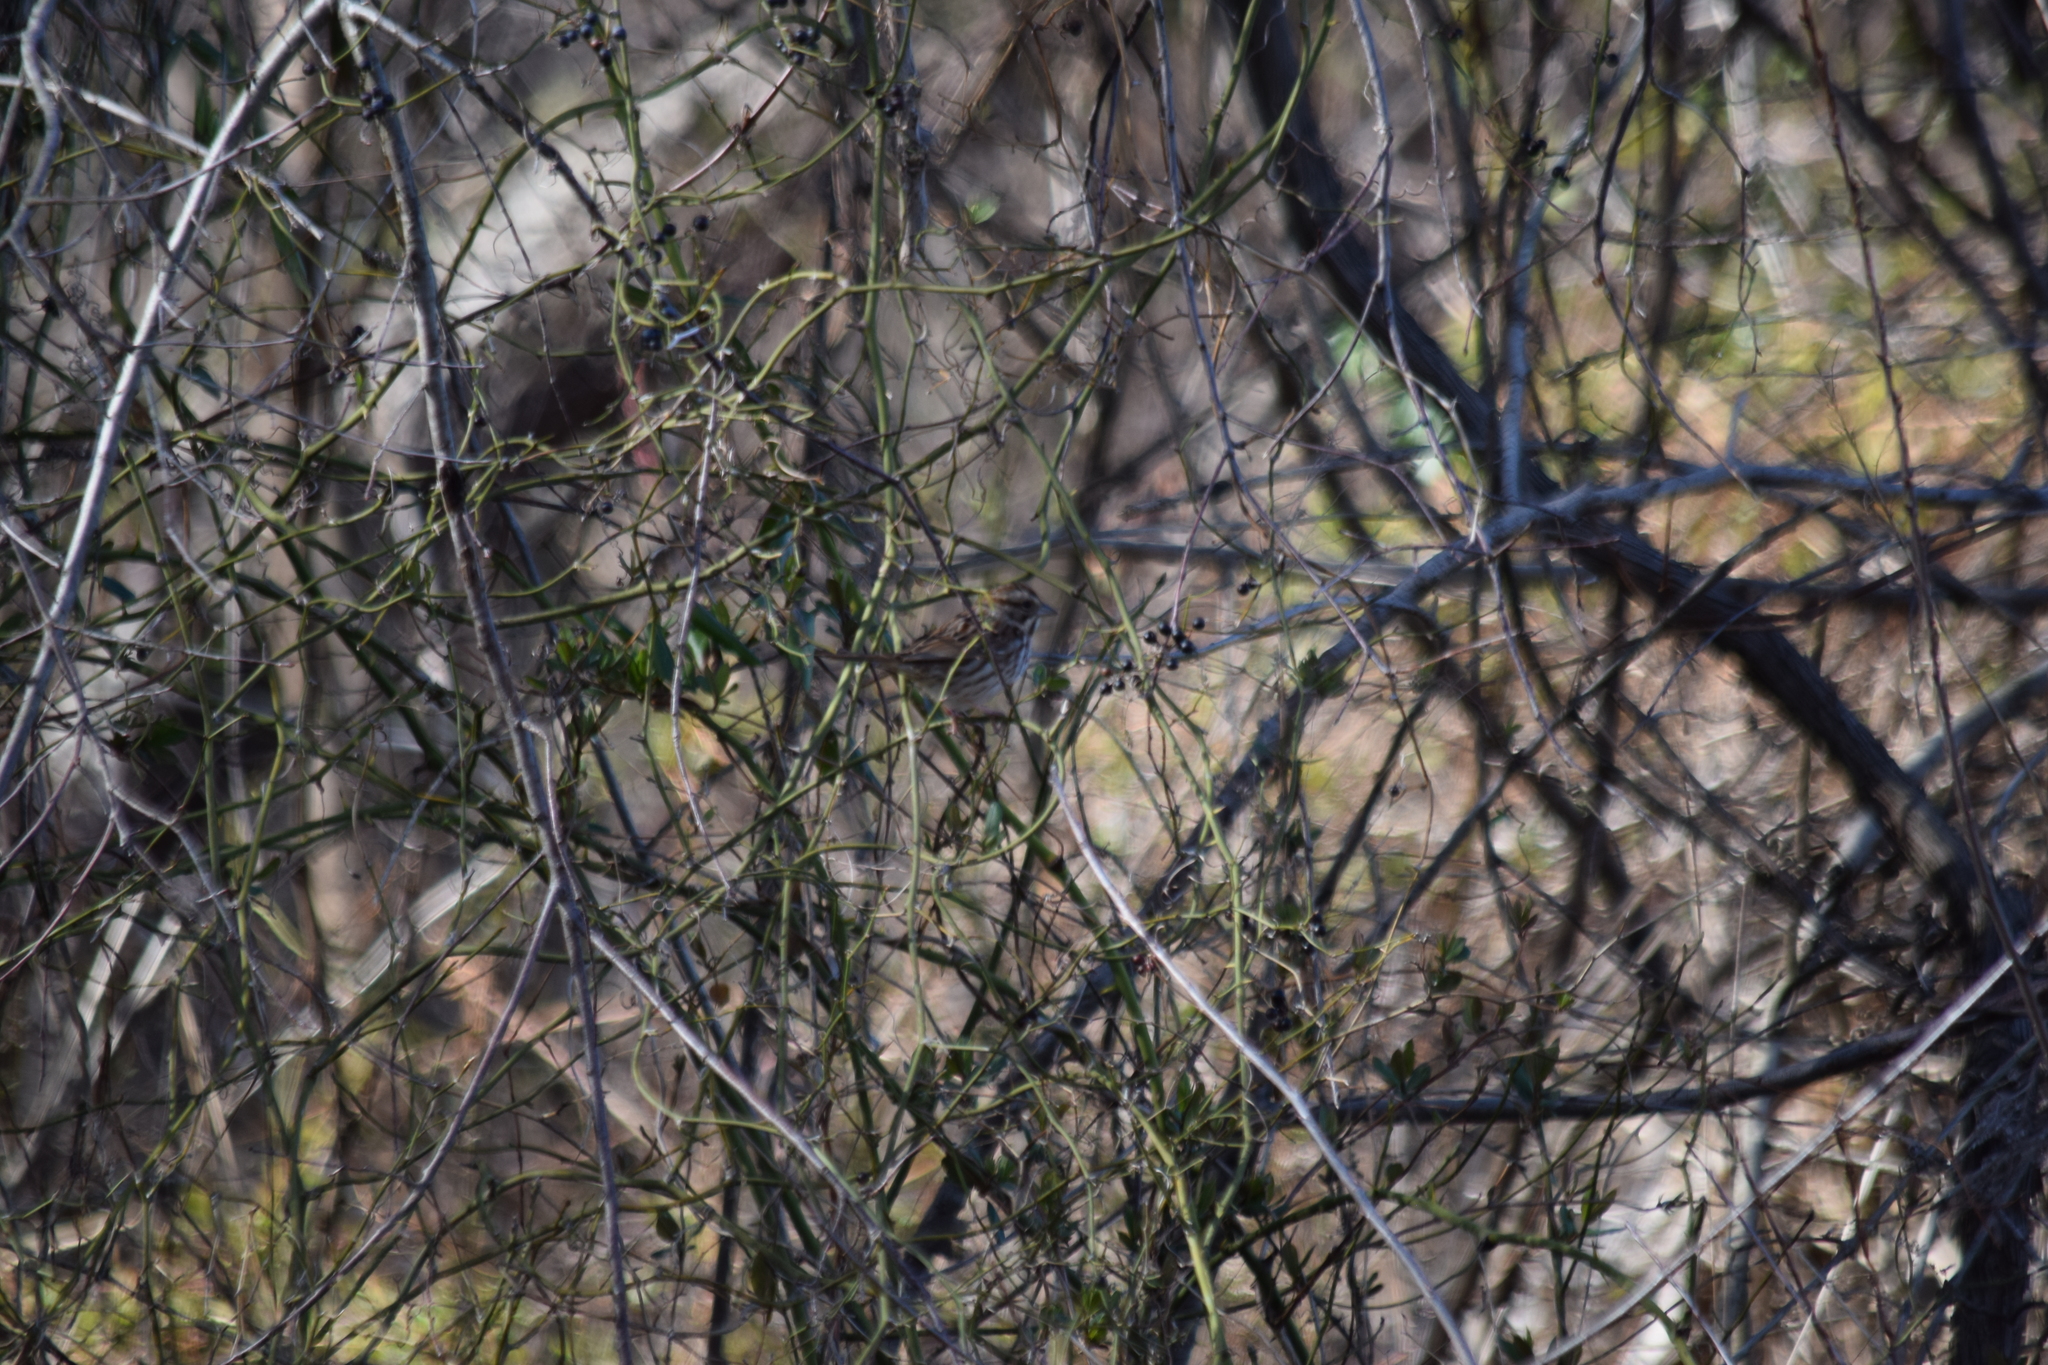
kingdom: Animalia
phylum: Chordata
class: Aves
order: Passeriformes
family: Passerellidae
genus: Melospiza
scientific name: Melospiza melodia
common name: Song sparrow
